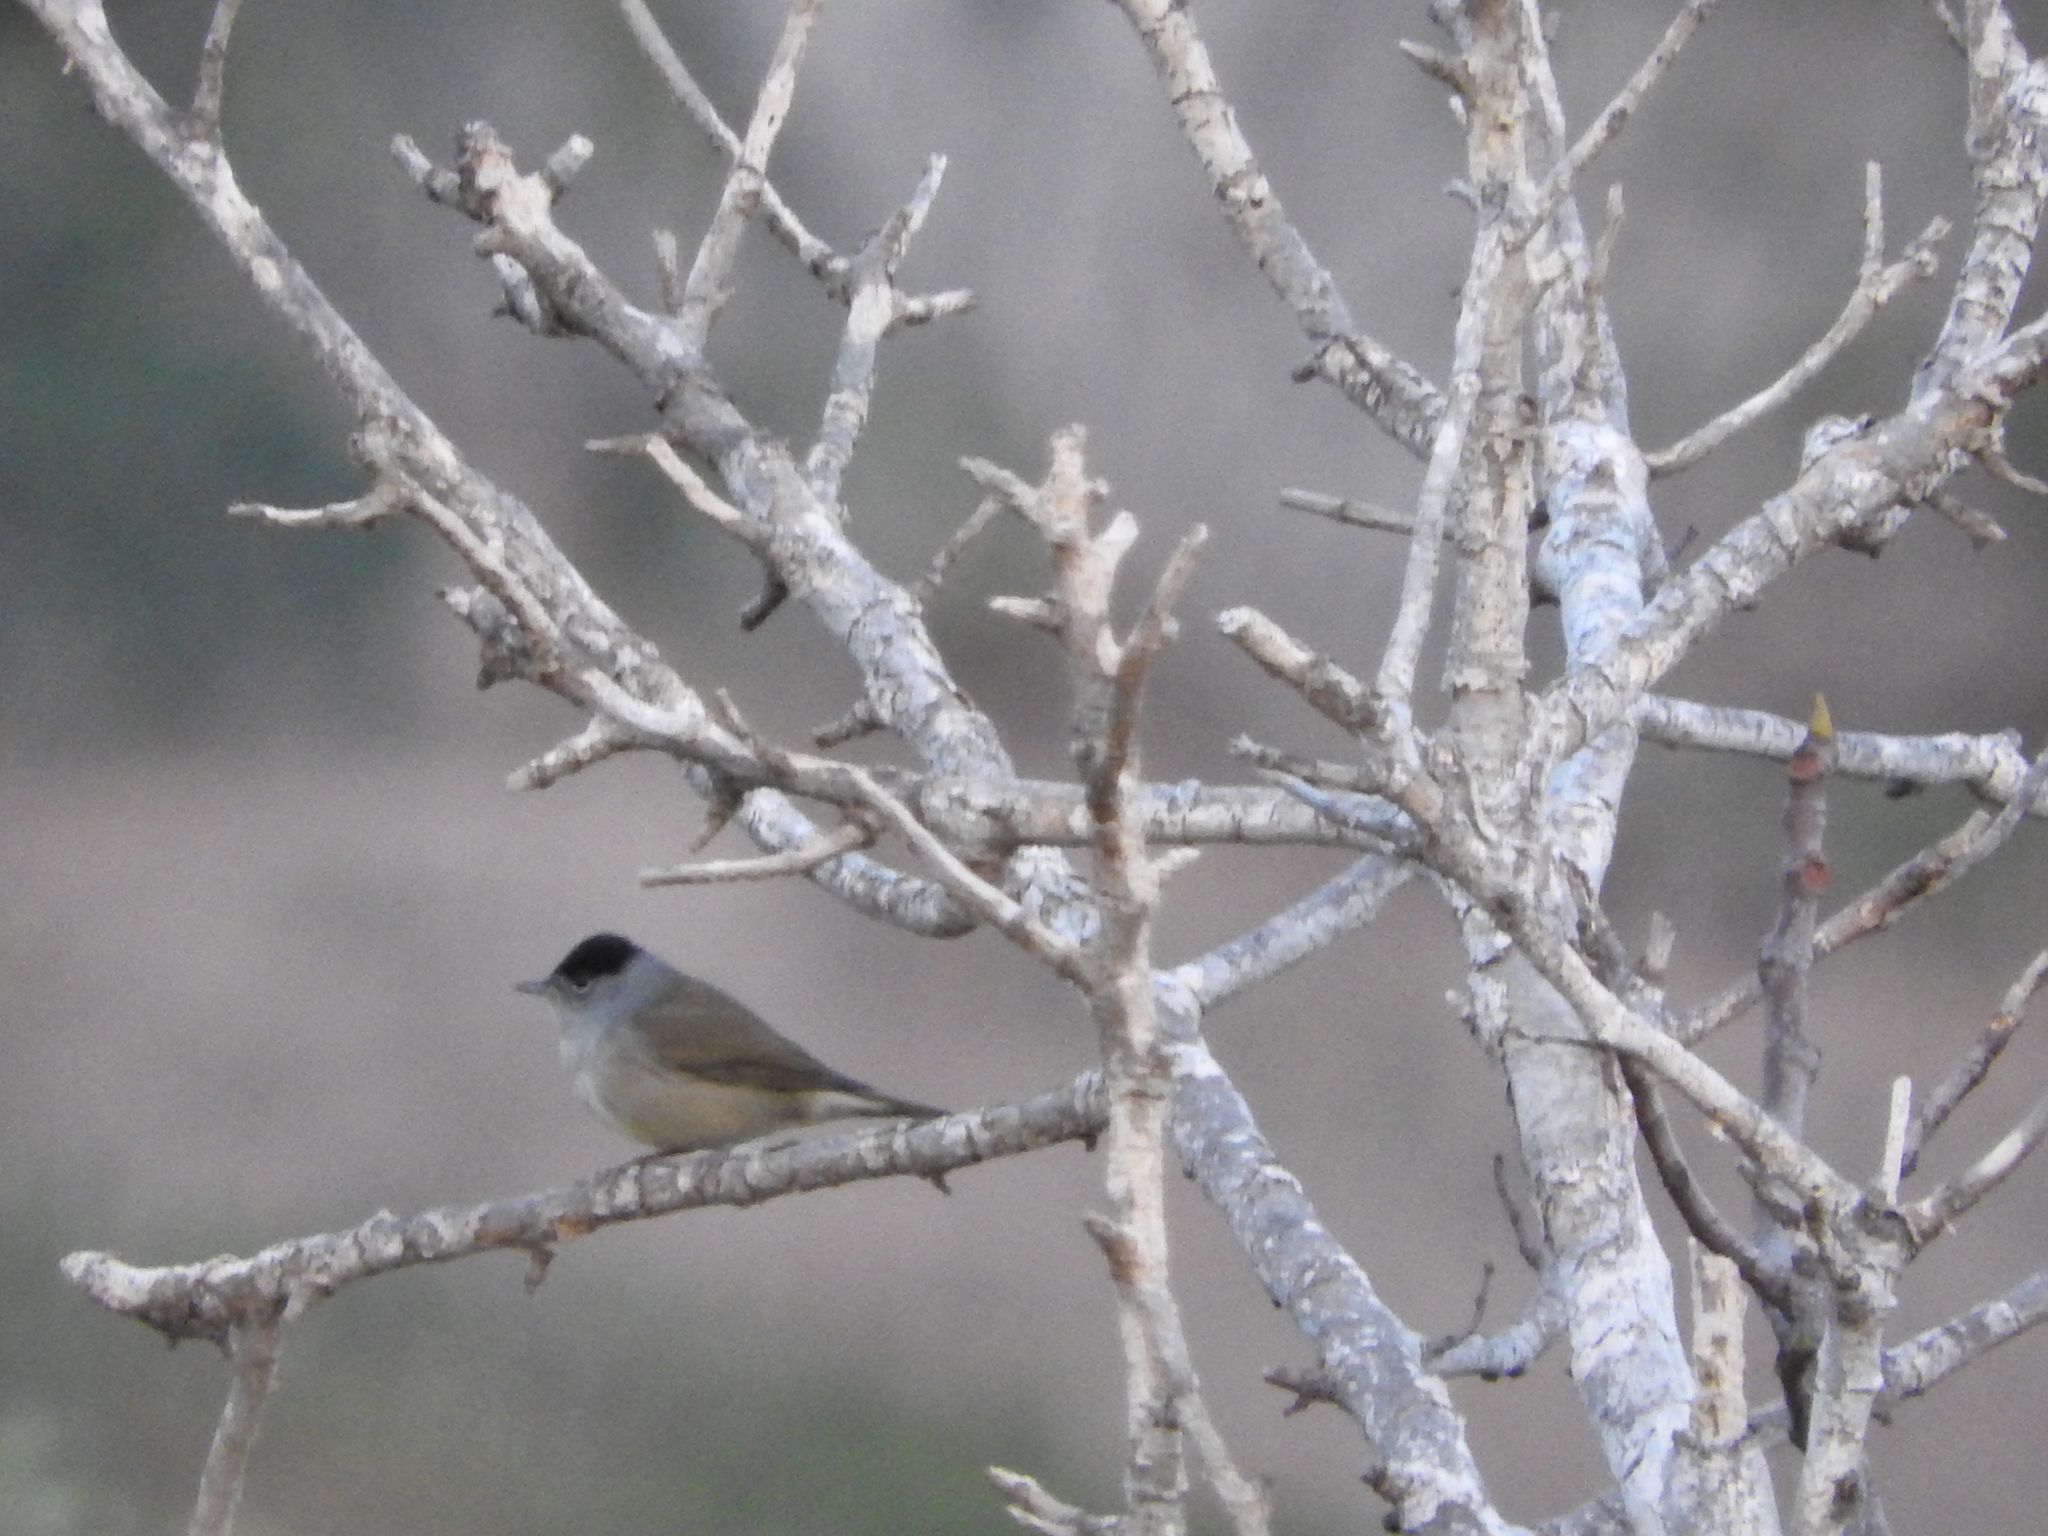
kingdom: Animalia
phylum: Chordata
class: Aves
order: Passeriformes
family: Sylviidae
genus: Sylvia
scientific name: Sylvia atricapilla
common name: Eurasian blackcap
